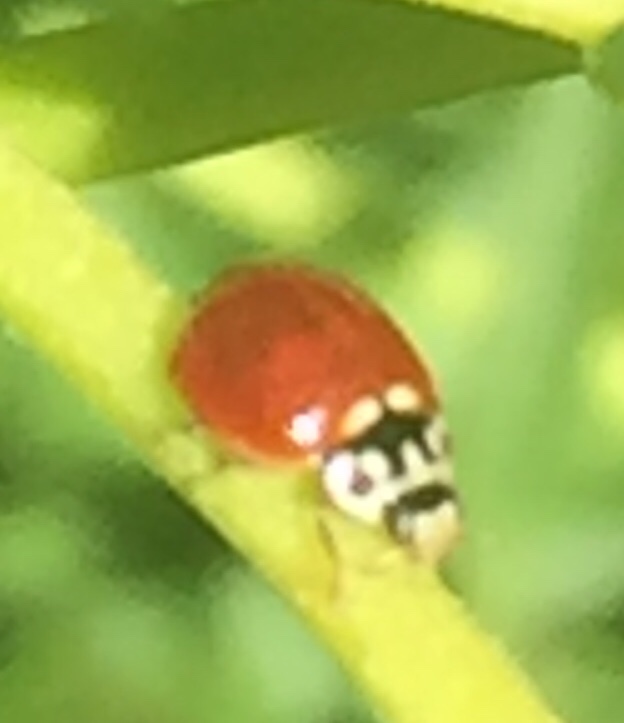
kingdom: Animalia
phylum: Arthropoda
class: Insecta
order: Coleoptera
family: Coccinellidae
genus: Cycloneda
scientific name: Cycloneda polita
